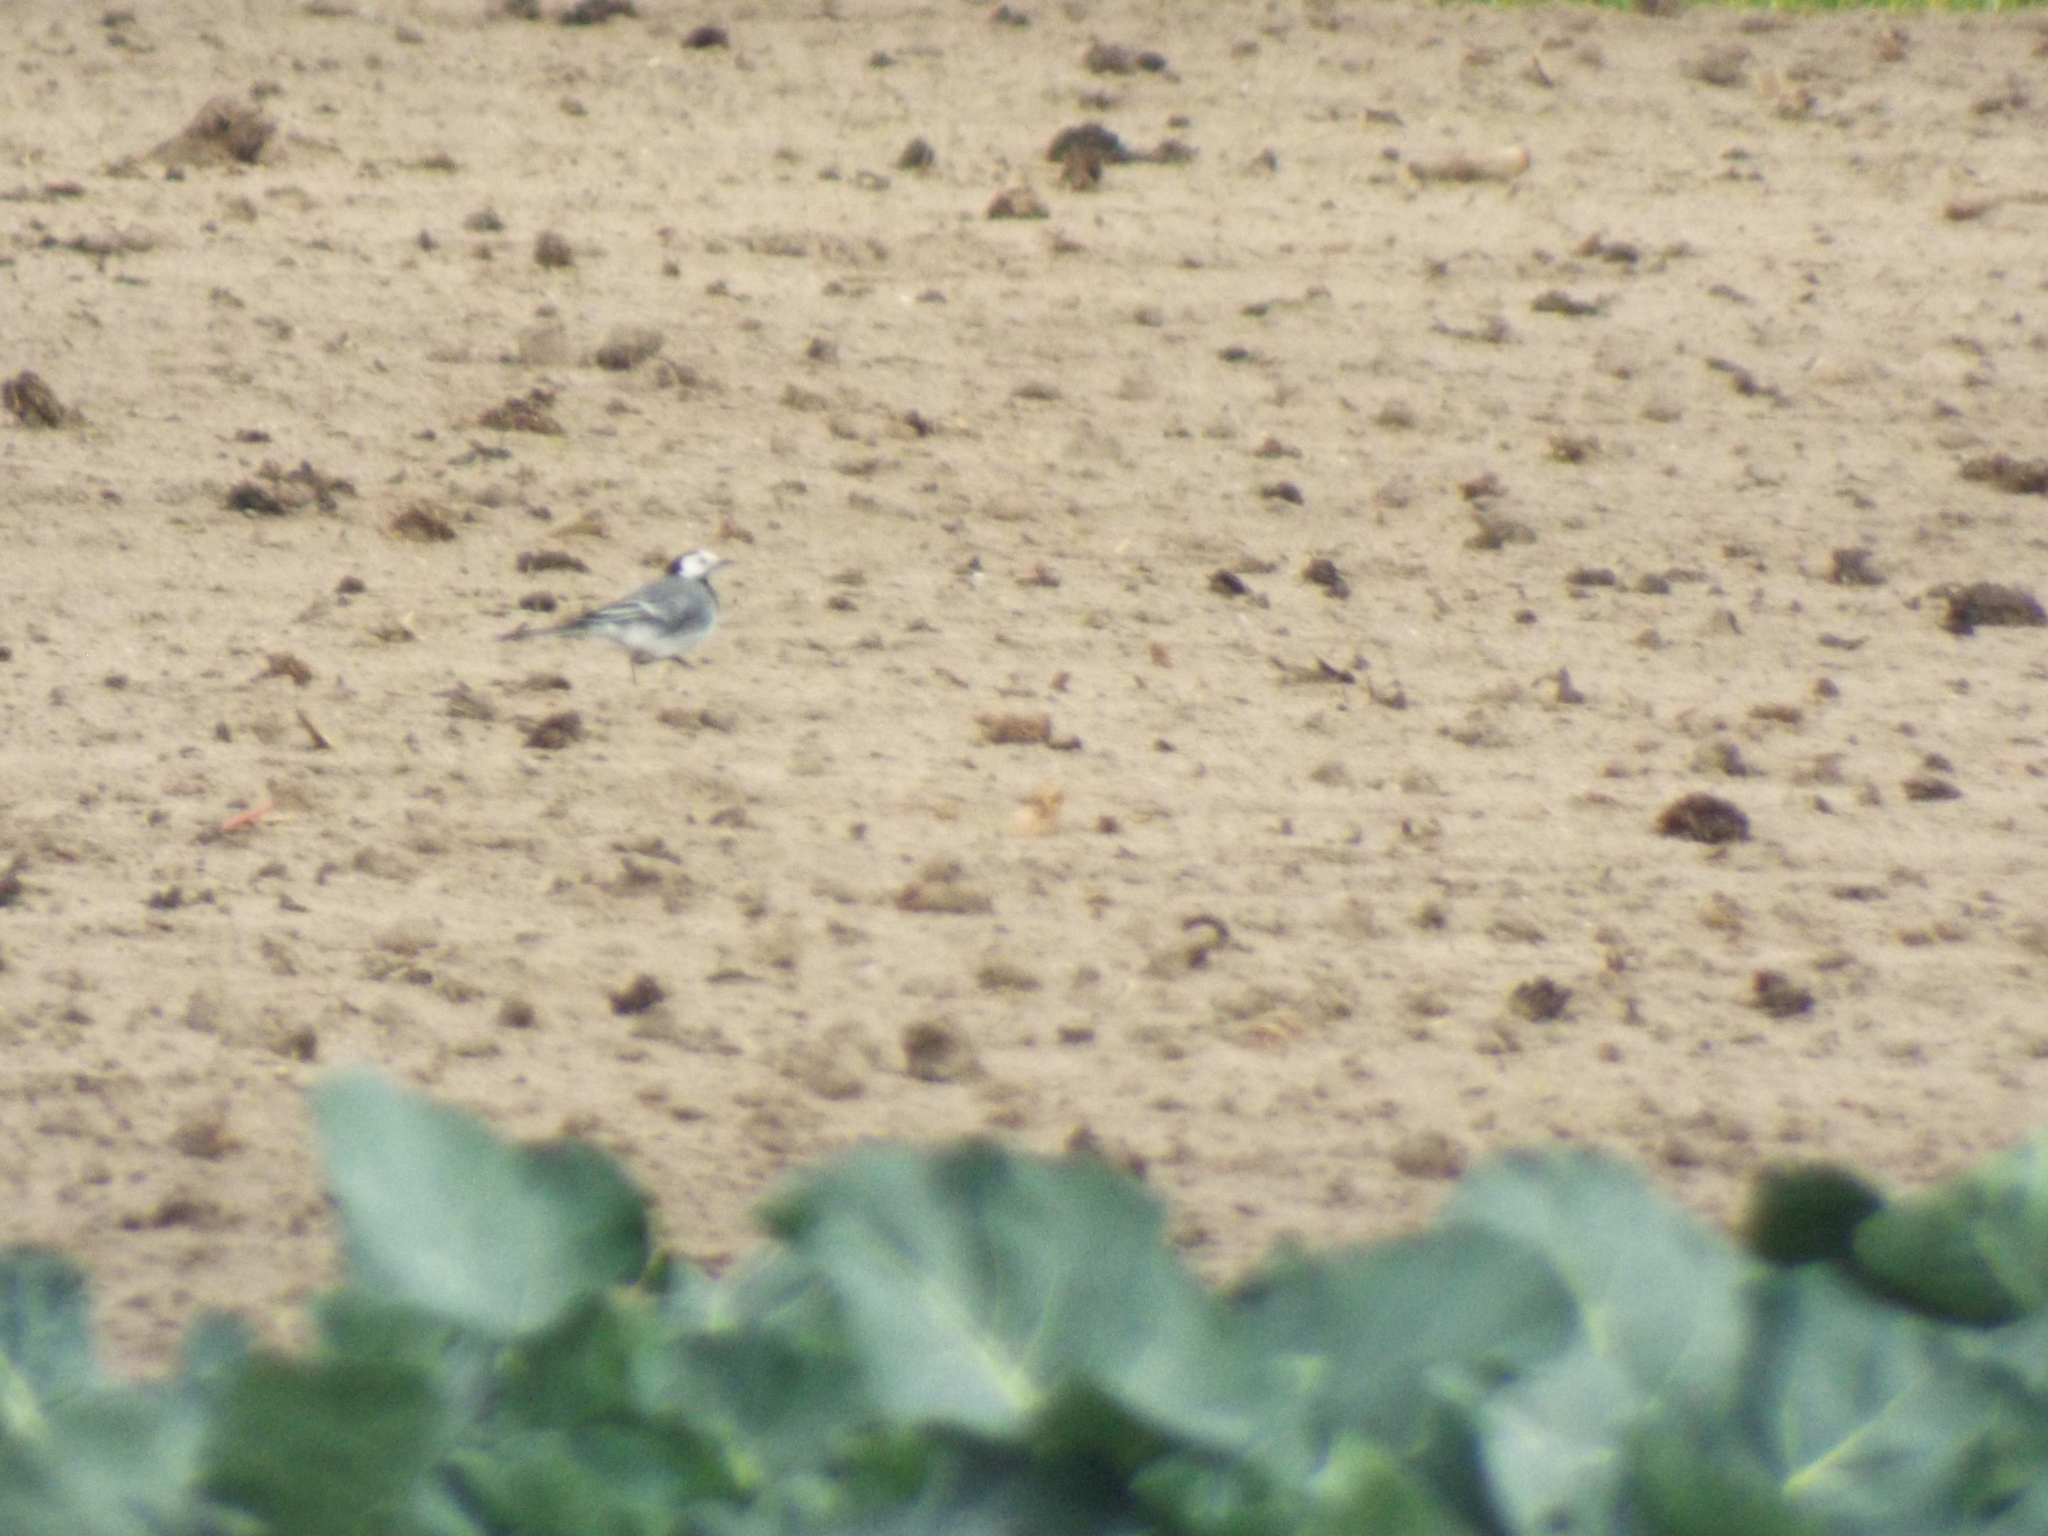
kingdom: Animalia
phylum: Chordata
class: Aves
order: Passeriformes
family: Motacillidae
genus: Motacilla
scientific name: Motacilla alba
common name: White wagtail
